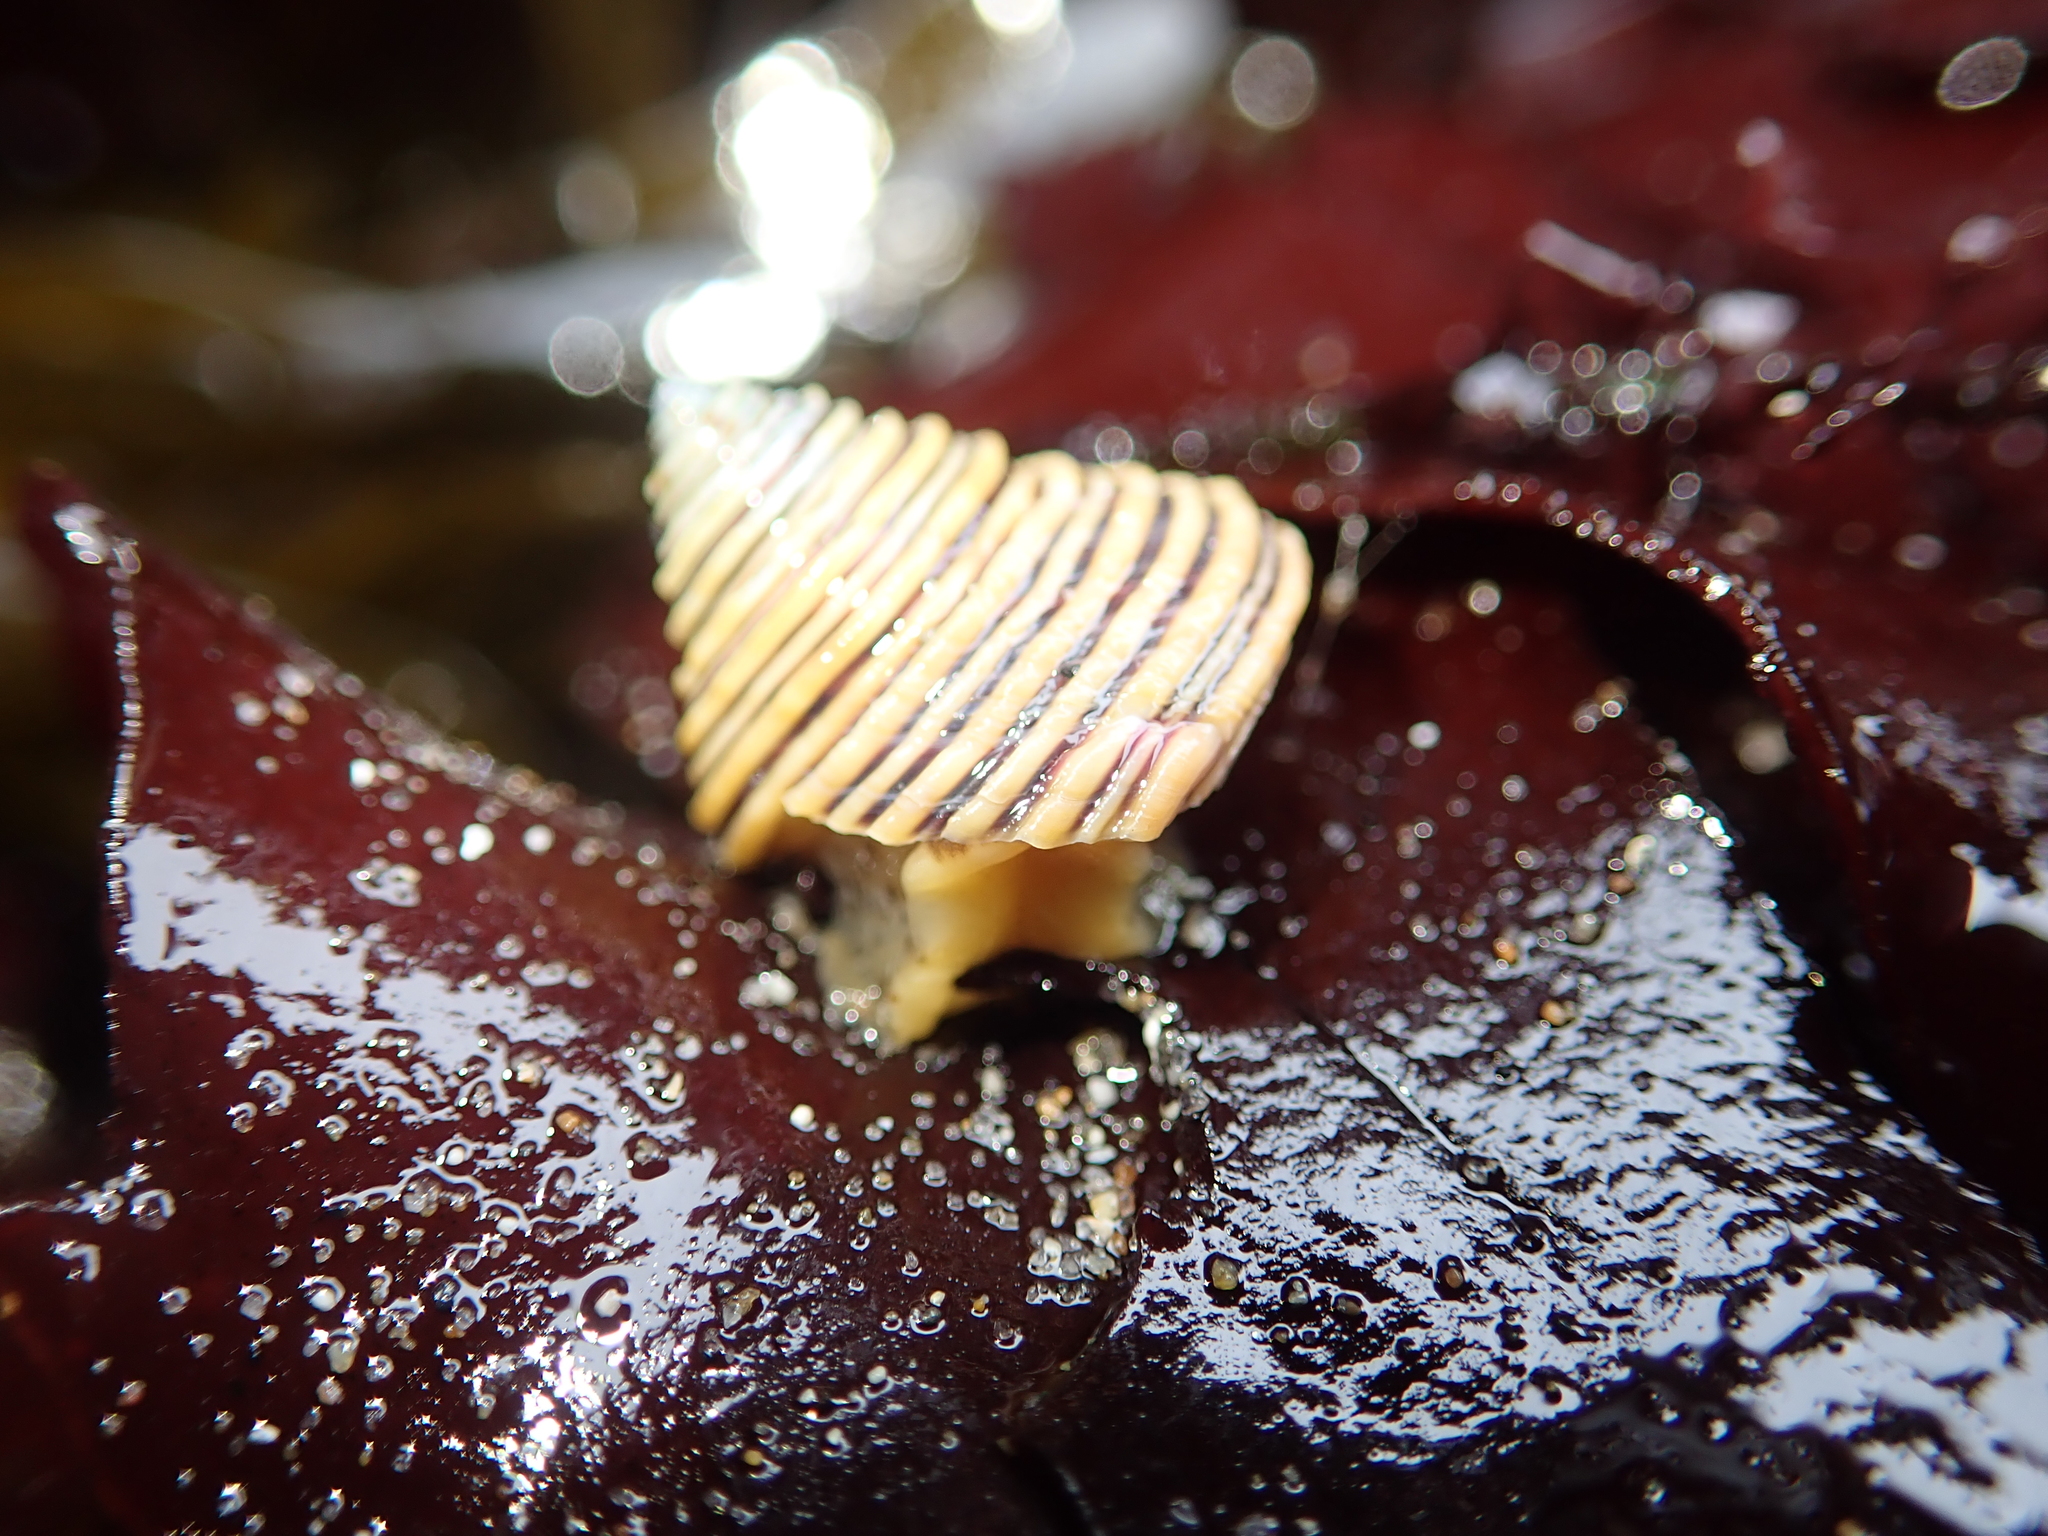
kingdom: Animalia
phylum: Mollusca
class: Gastropoda
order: Trochida
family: Calliostomatidae
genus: Calliostoma
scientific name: Calliostoma canaliculatum
